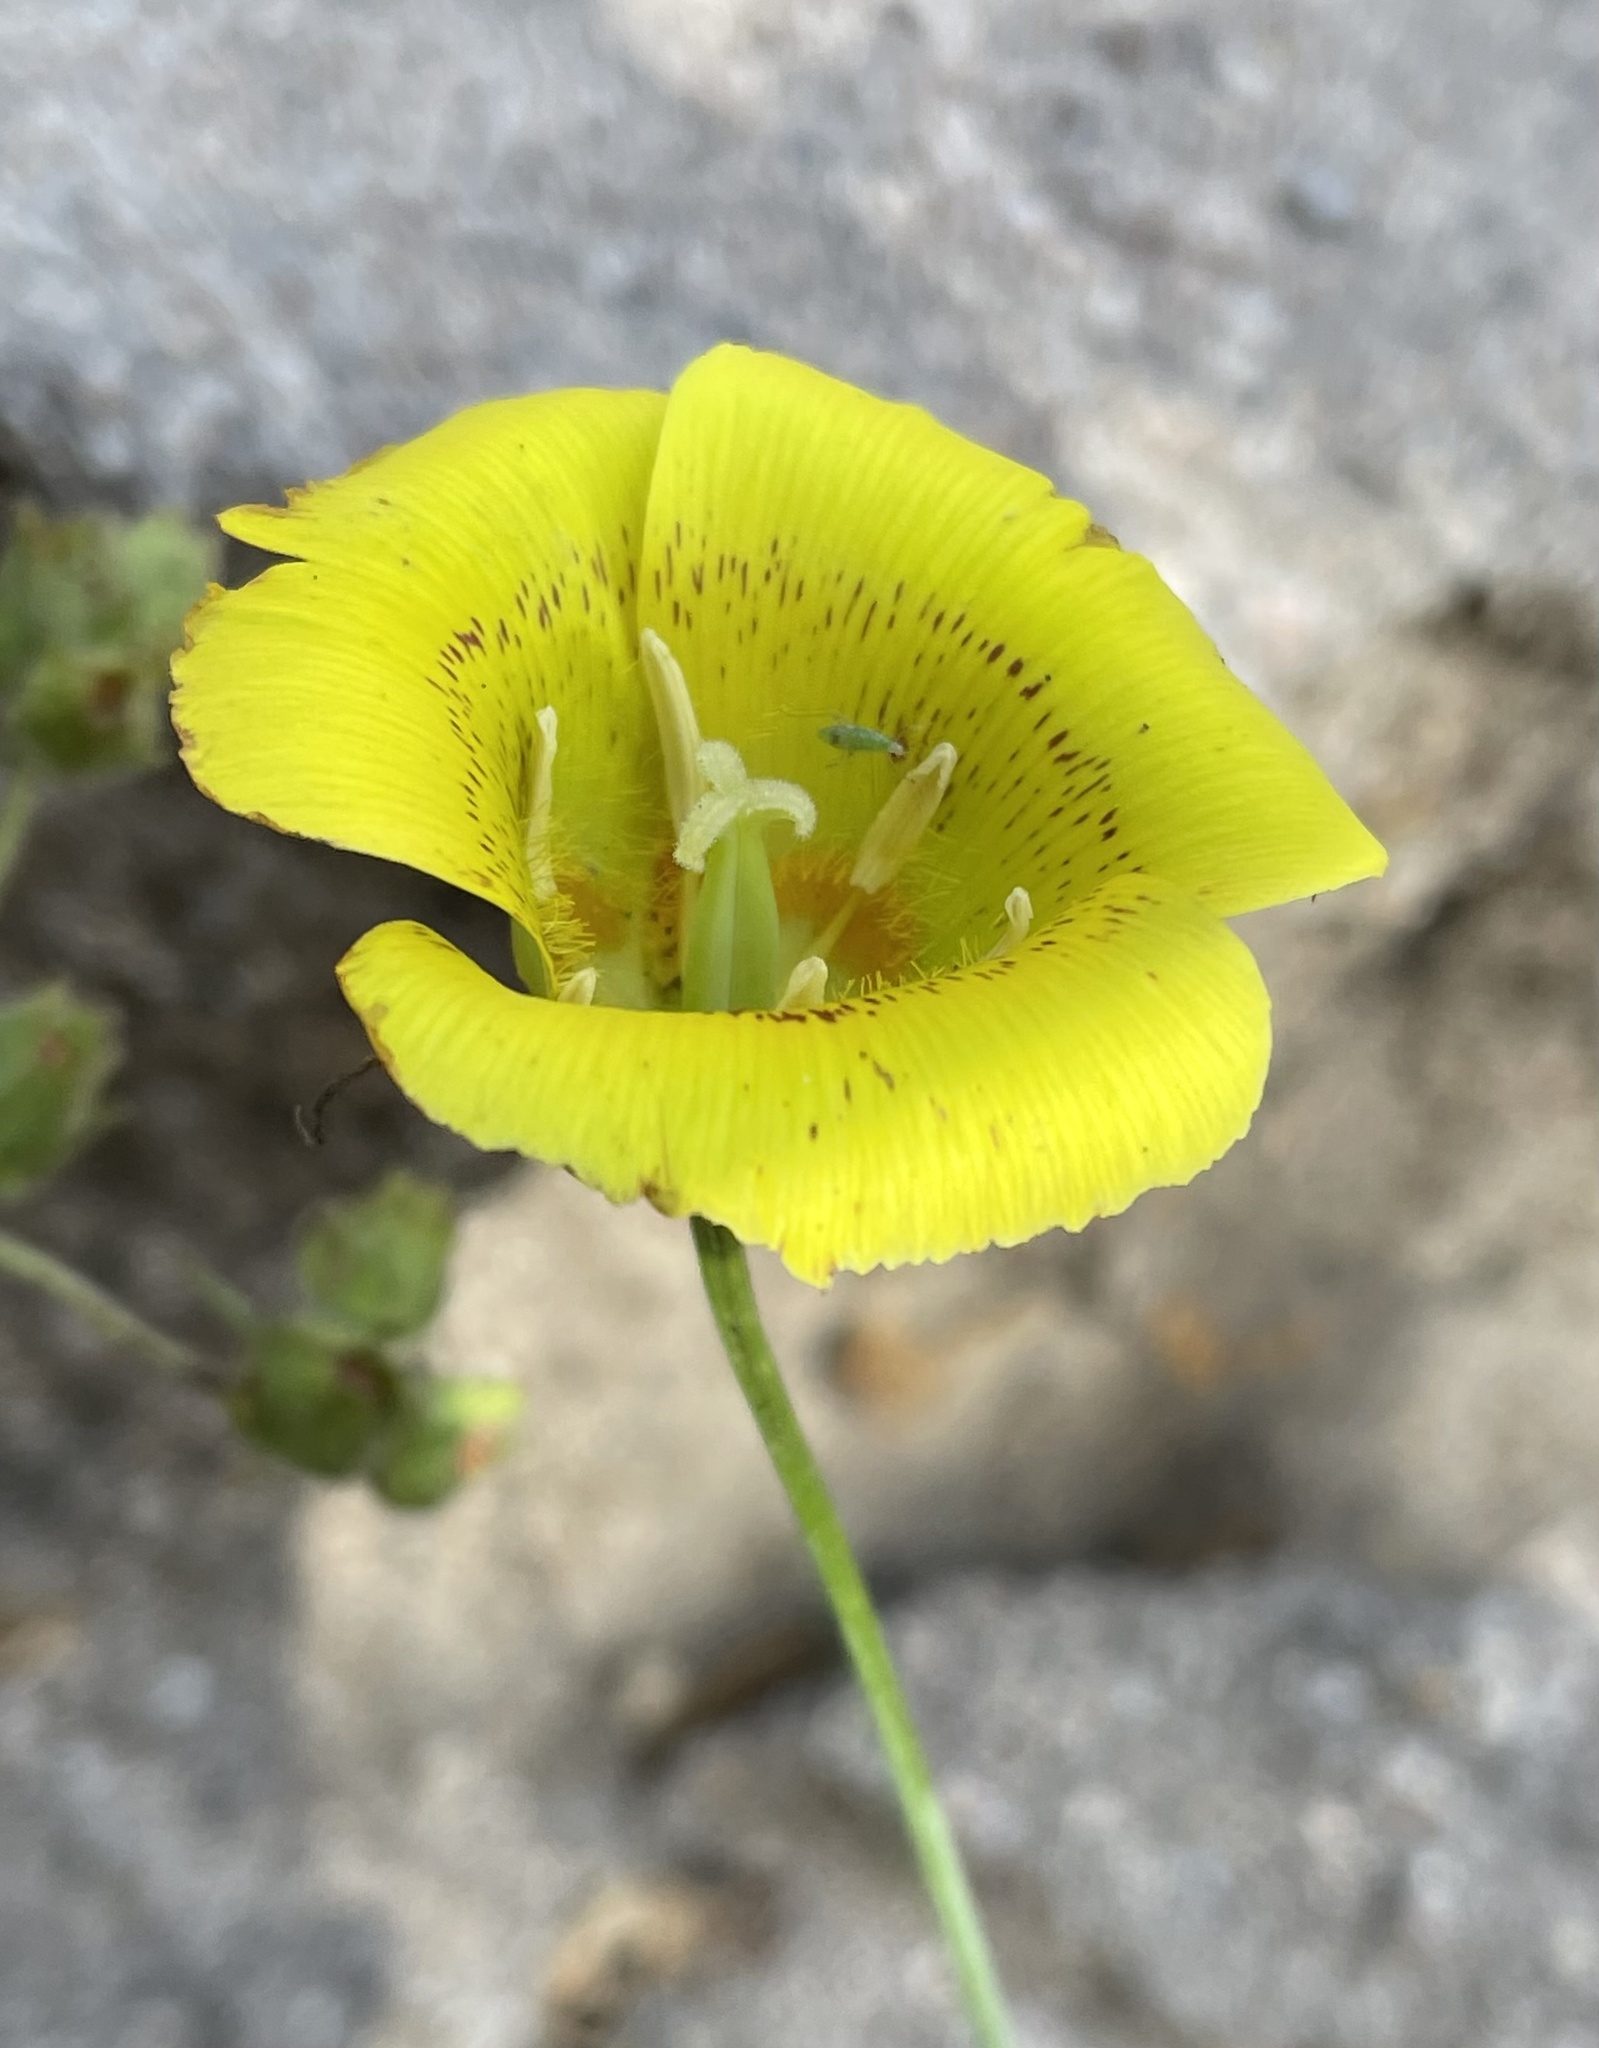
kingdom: Plantae
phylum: Tracheophyta
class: Liliopsida
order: Liliales
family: Liliaceae
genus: Calochortus
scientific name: Calochortus luteus
